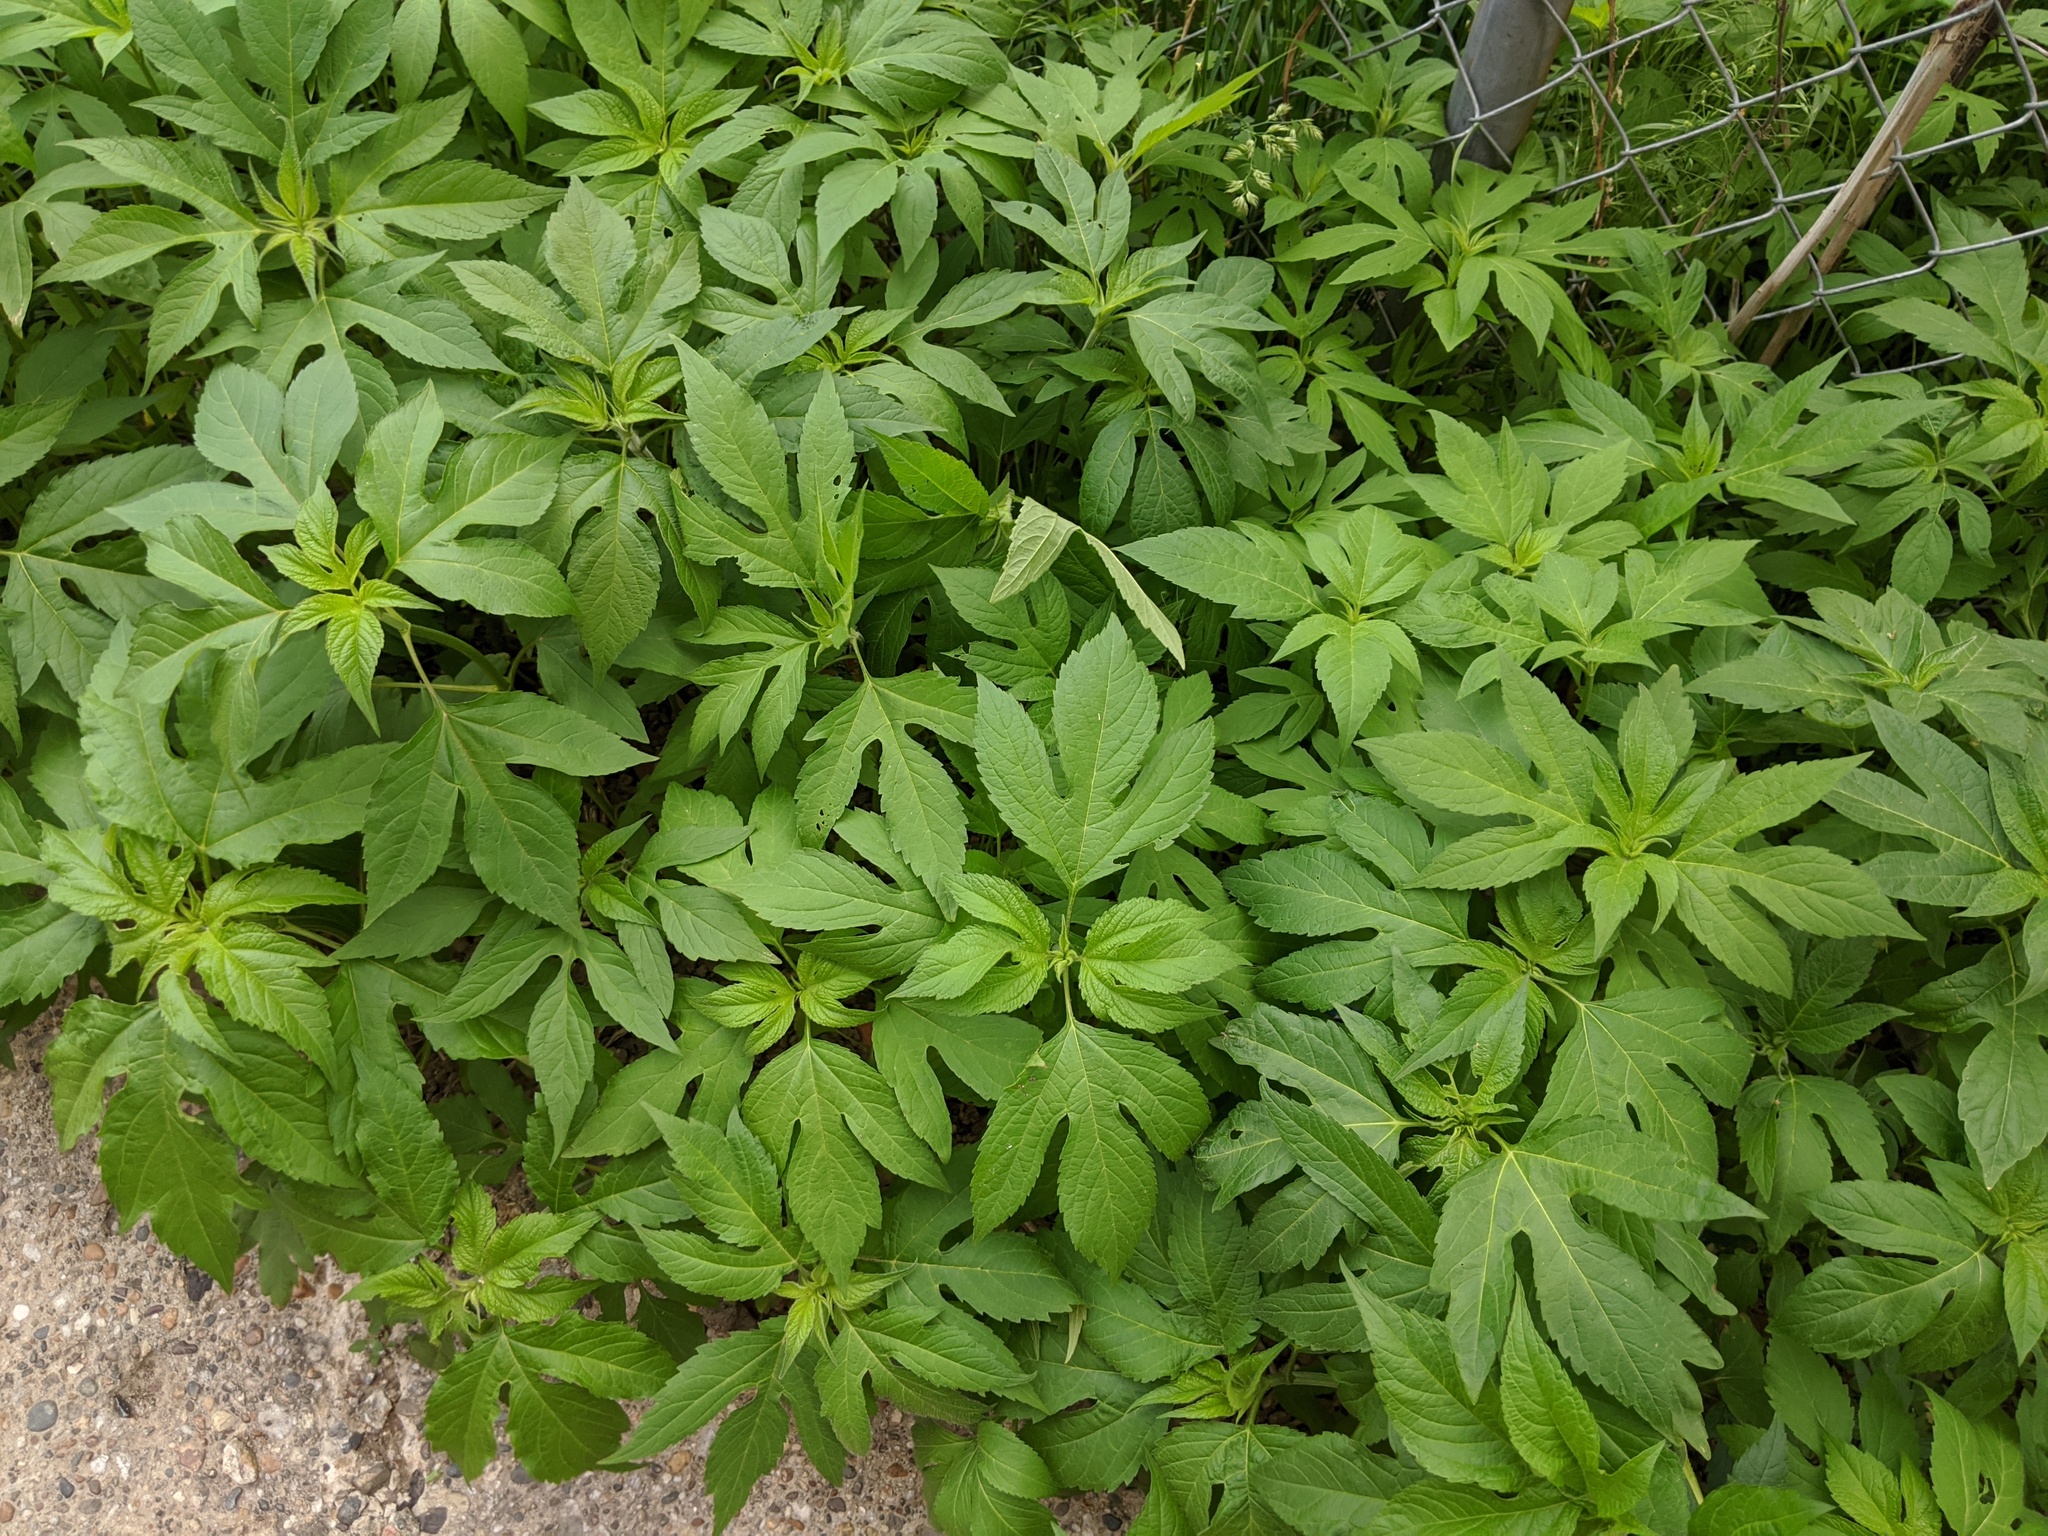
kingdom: Plantae
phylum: Tracheophyta
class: Magnoliopsida
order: Asterales
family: Asteraceae
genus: Ambrosia
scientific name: Ambrosia trifida
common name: Giant ragweed
